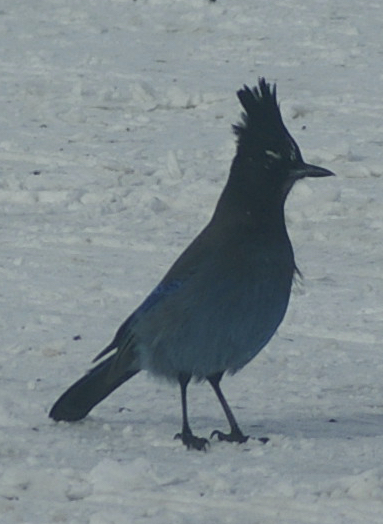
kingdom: Animalia
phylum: Chordata
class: Aves
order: Passeriformes
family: Corvidae
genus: Cyanocitta
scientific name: Cyanocitta stelleri
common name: Steller's jay
